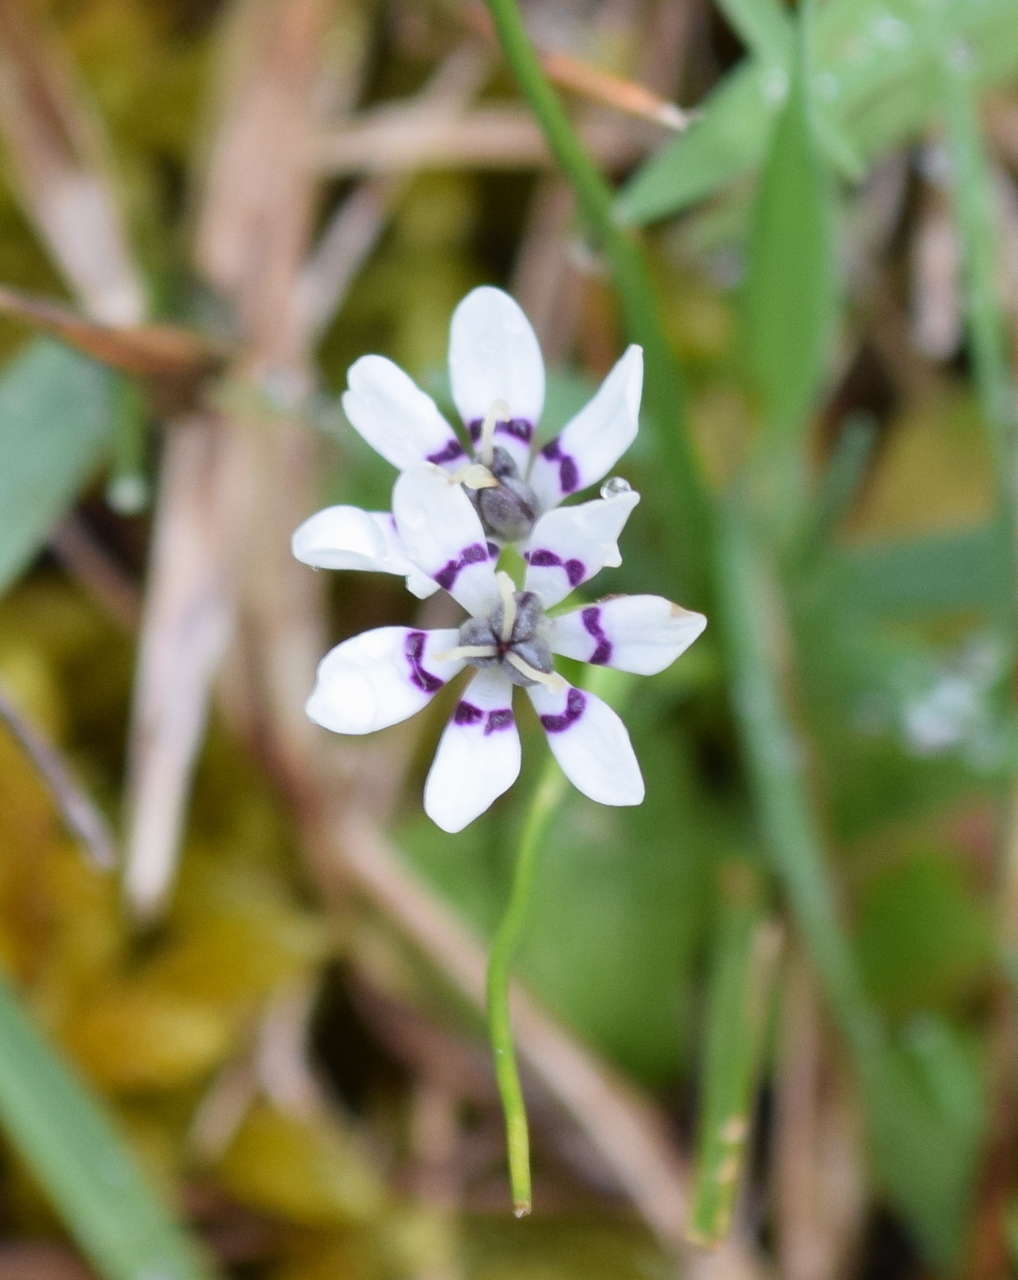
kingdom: Plantae
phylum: Tracheophyta
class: Liliopsida
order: Liliales
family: Colchicaceae
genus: Wurmbea
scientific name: Wurmbea dioica
